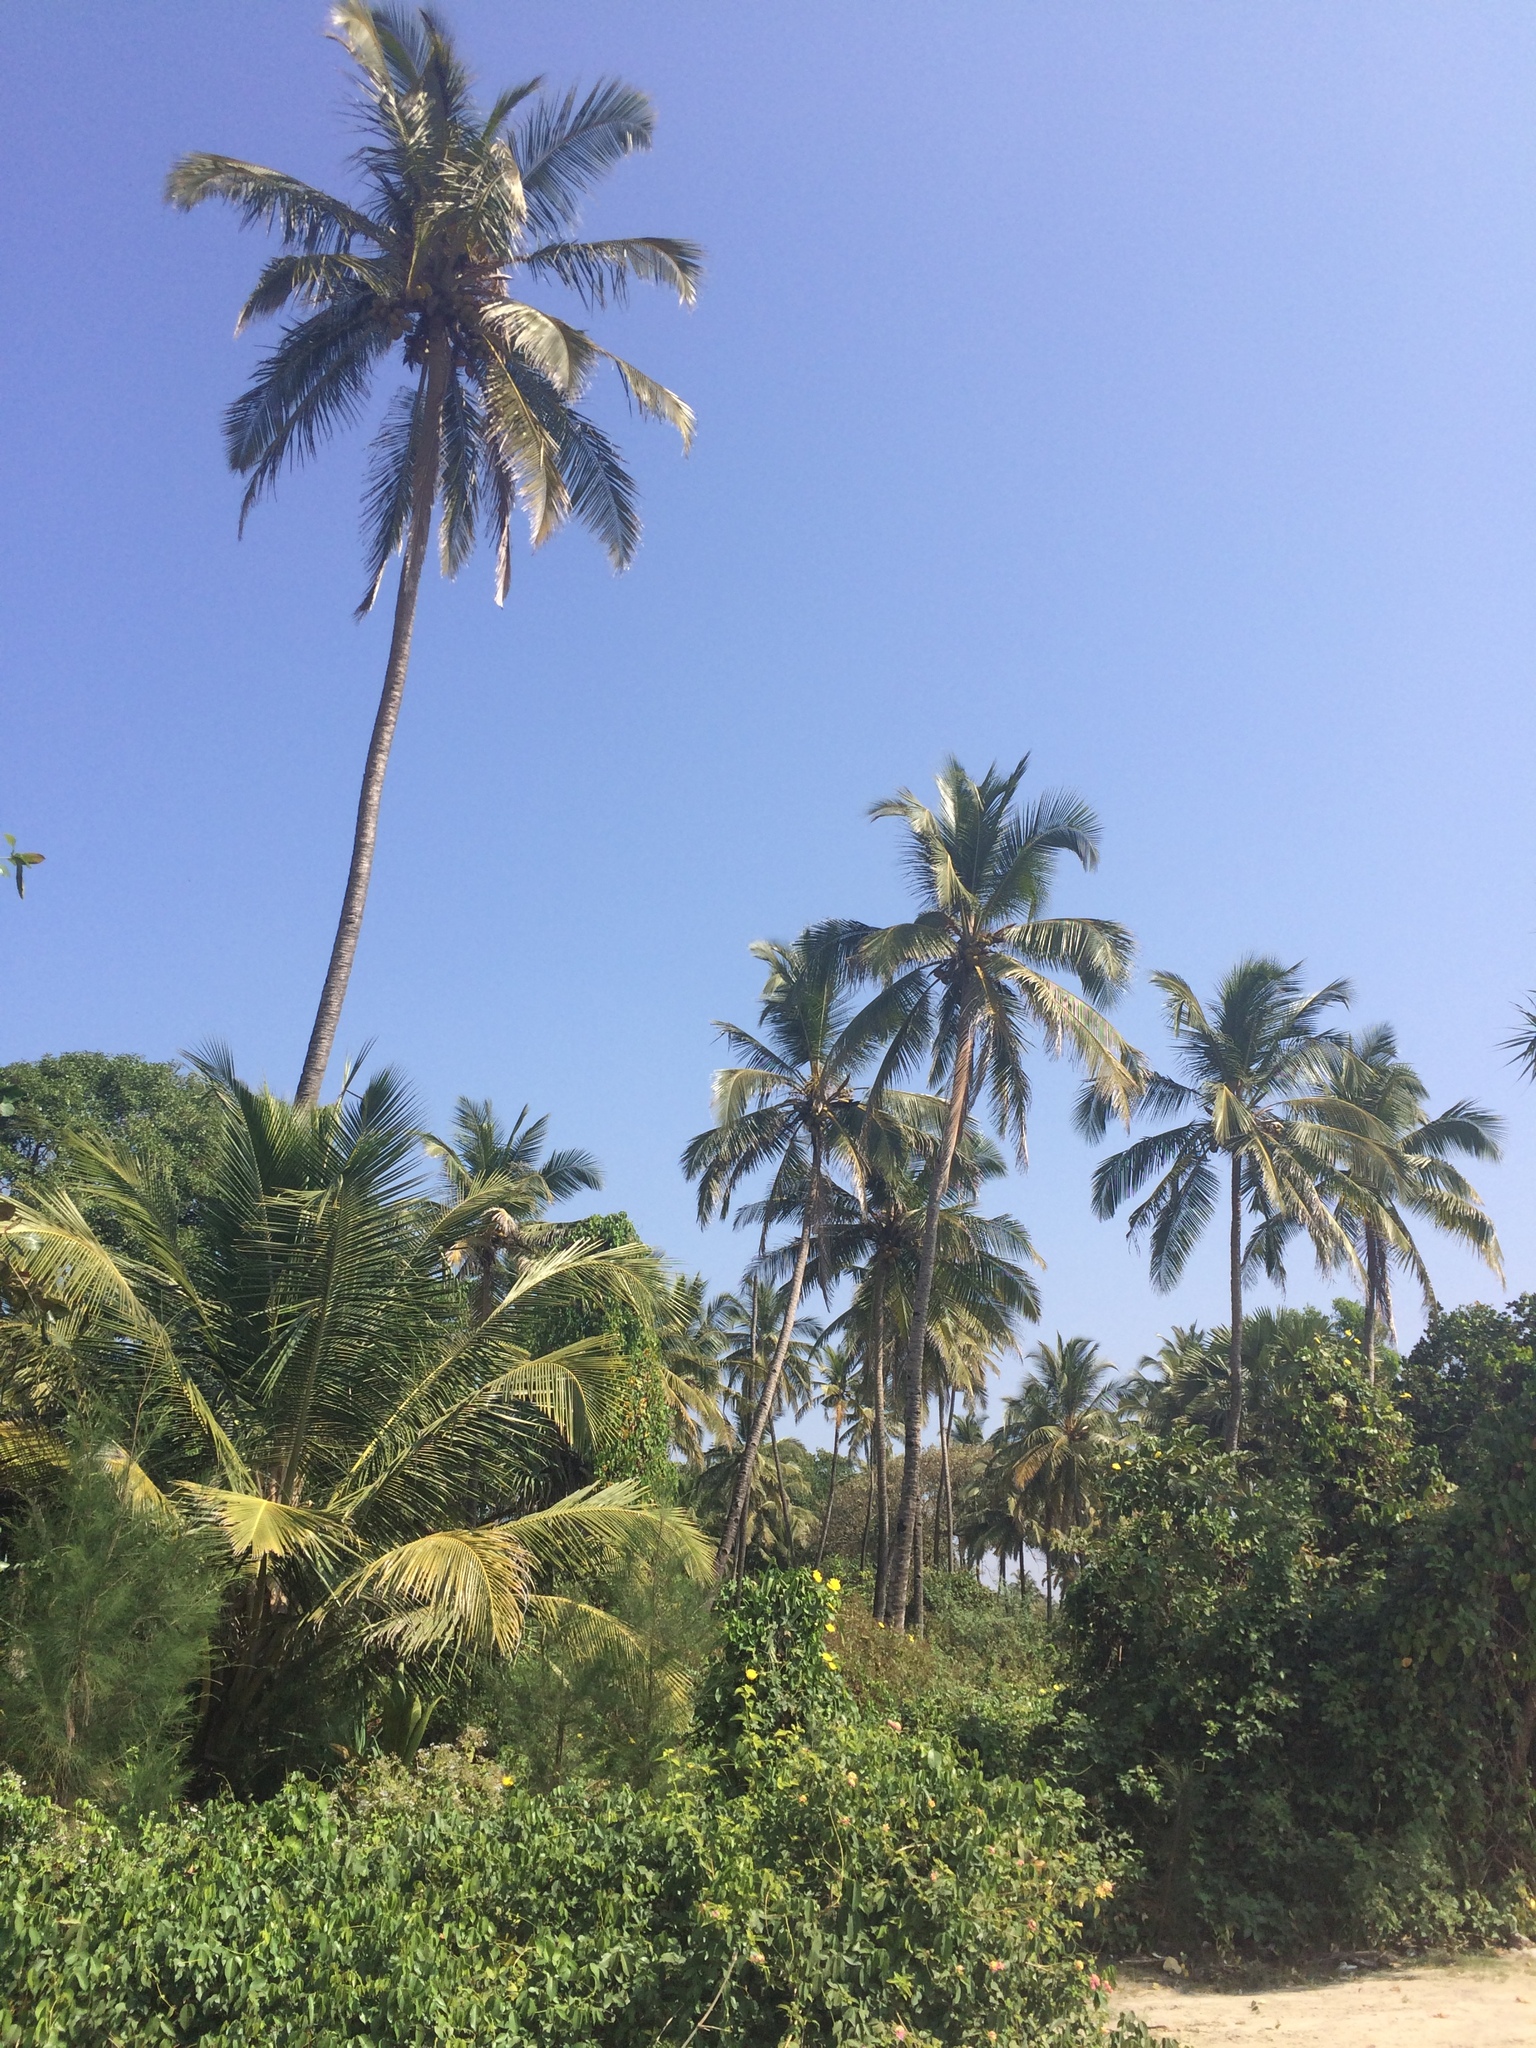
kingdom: Plantae
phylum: Tracheophyta
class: Liliopsida
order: Arecales
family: Arecaceae
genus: Cocos
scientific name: Cocos nucifera
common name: Coconut palm
